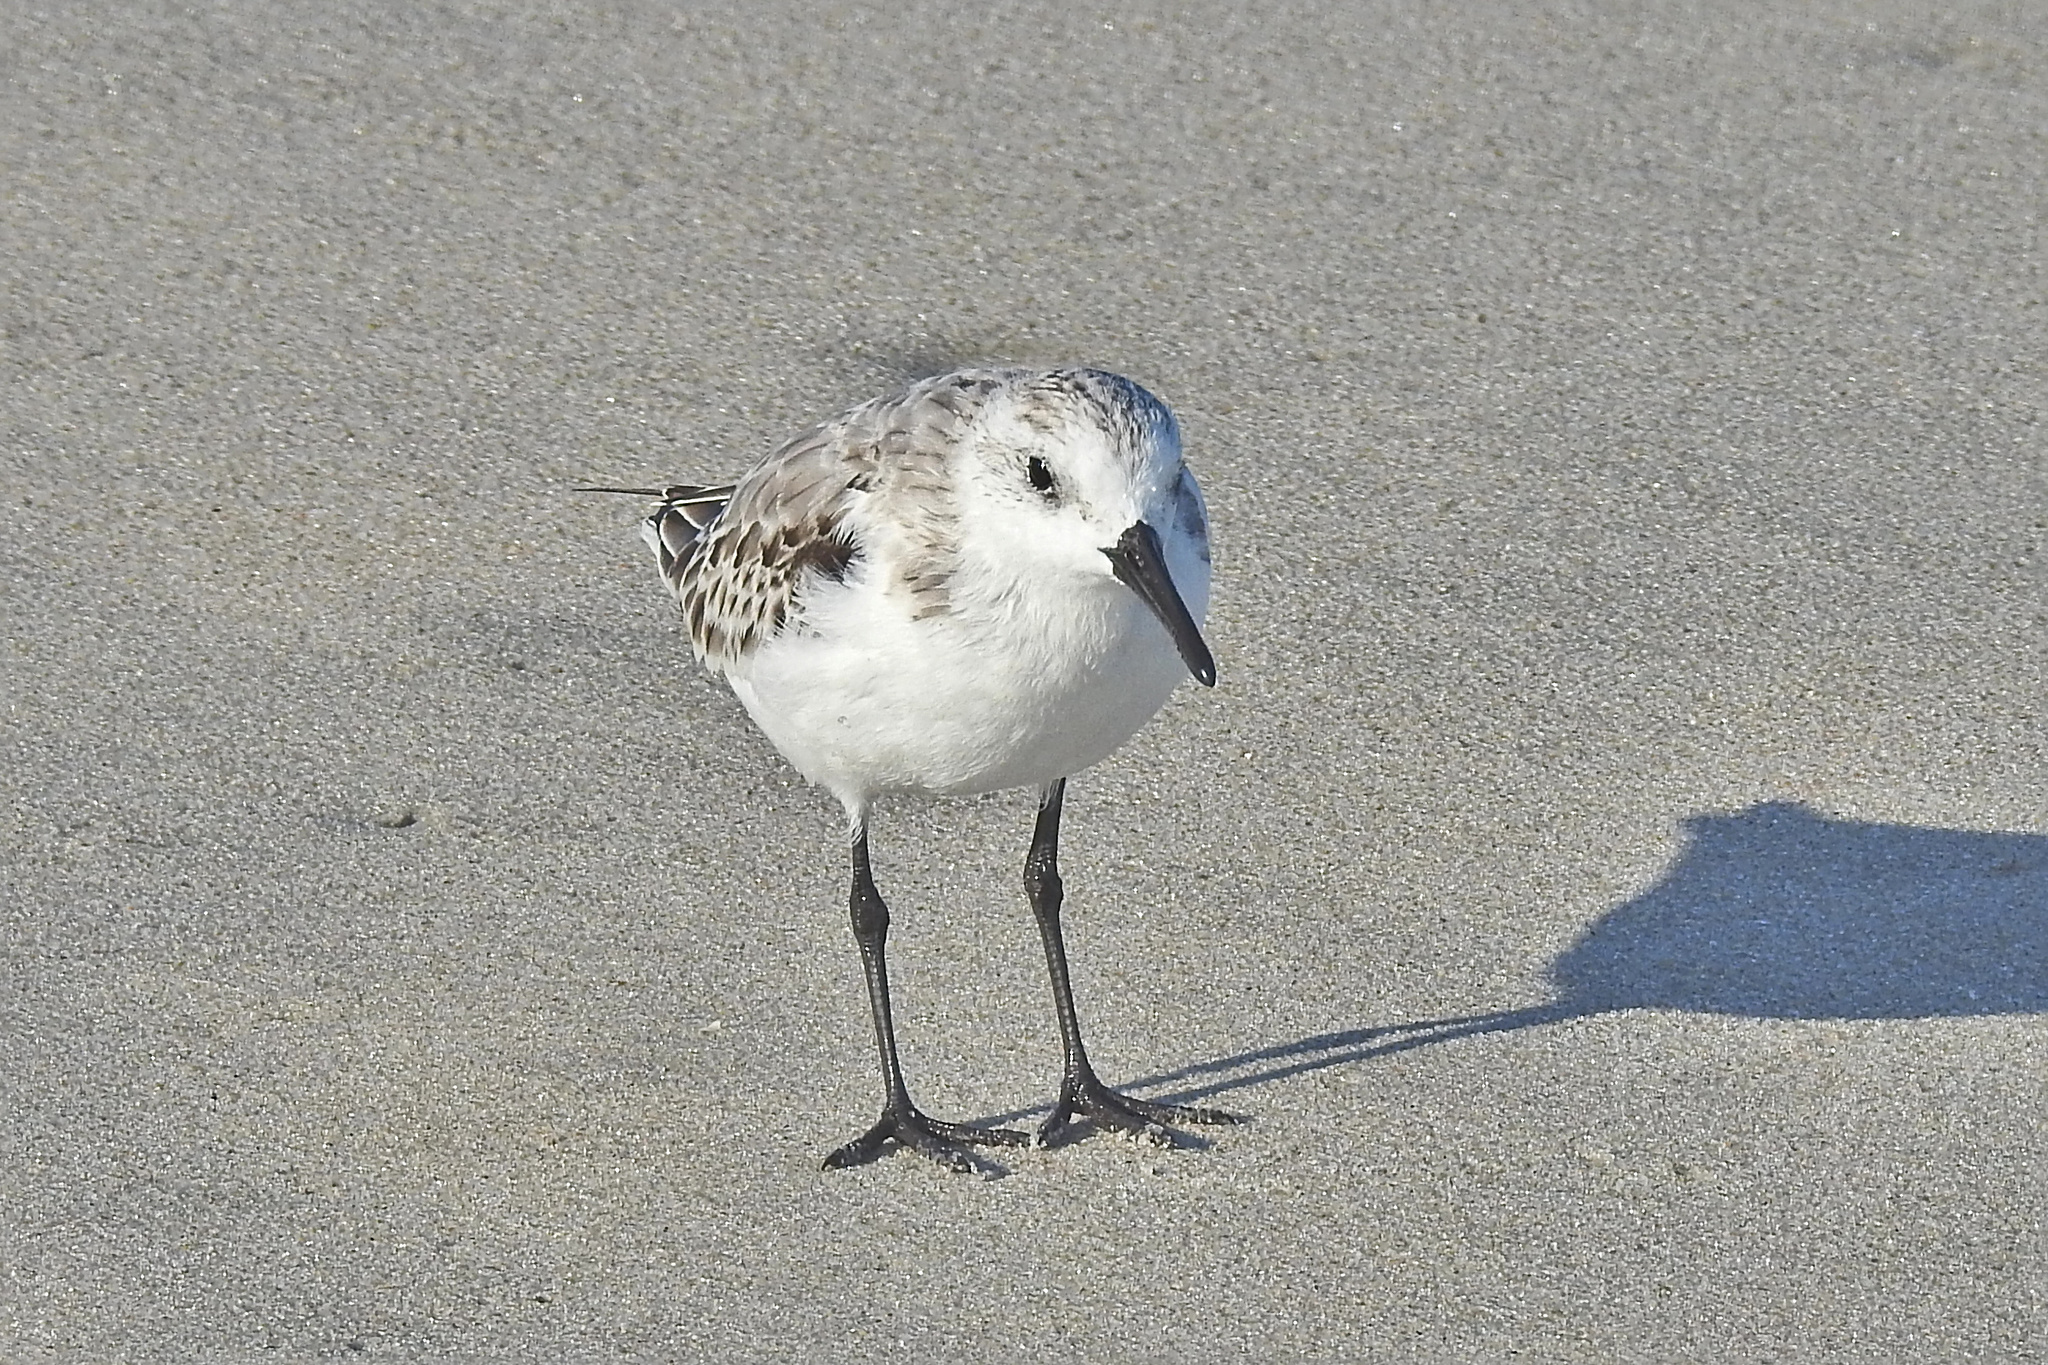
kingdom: Animalia
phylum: Chordata
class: Aves
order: Charadriiformes
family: Scolopacidae
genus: Calidris
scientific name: Calidris alba
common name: Sanderling
